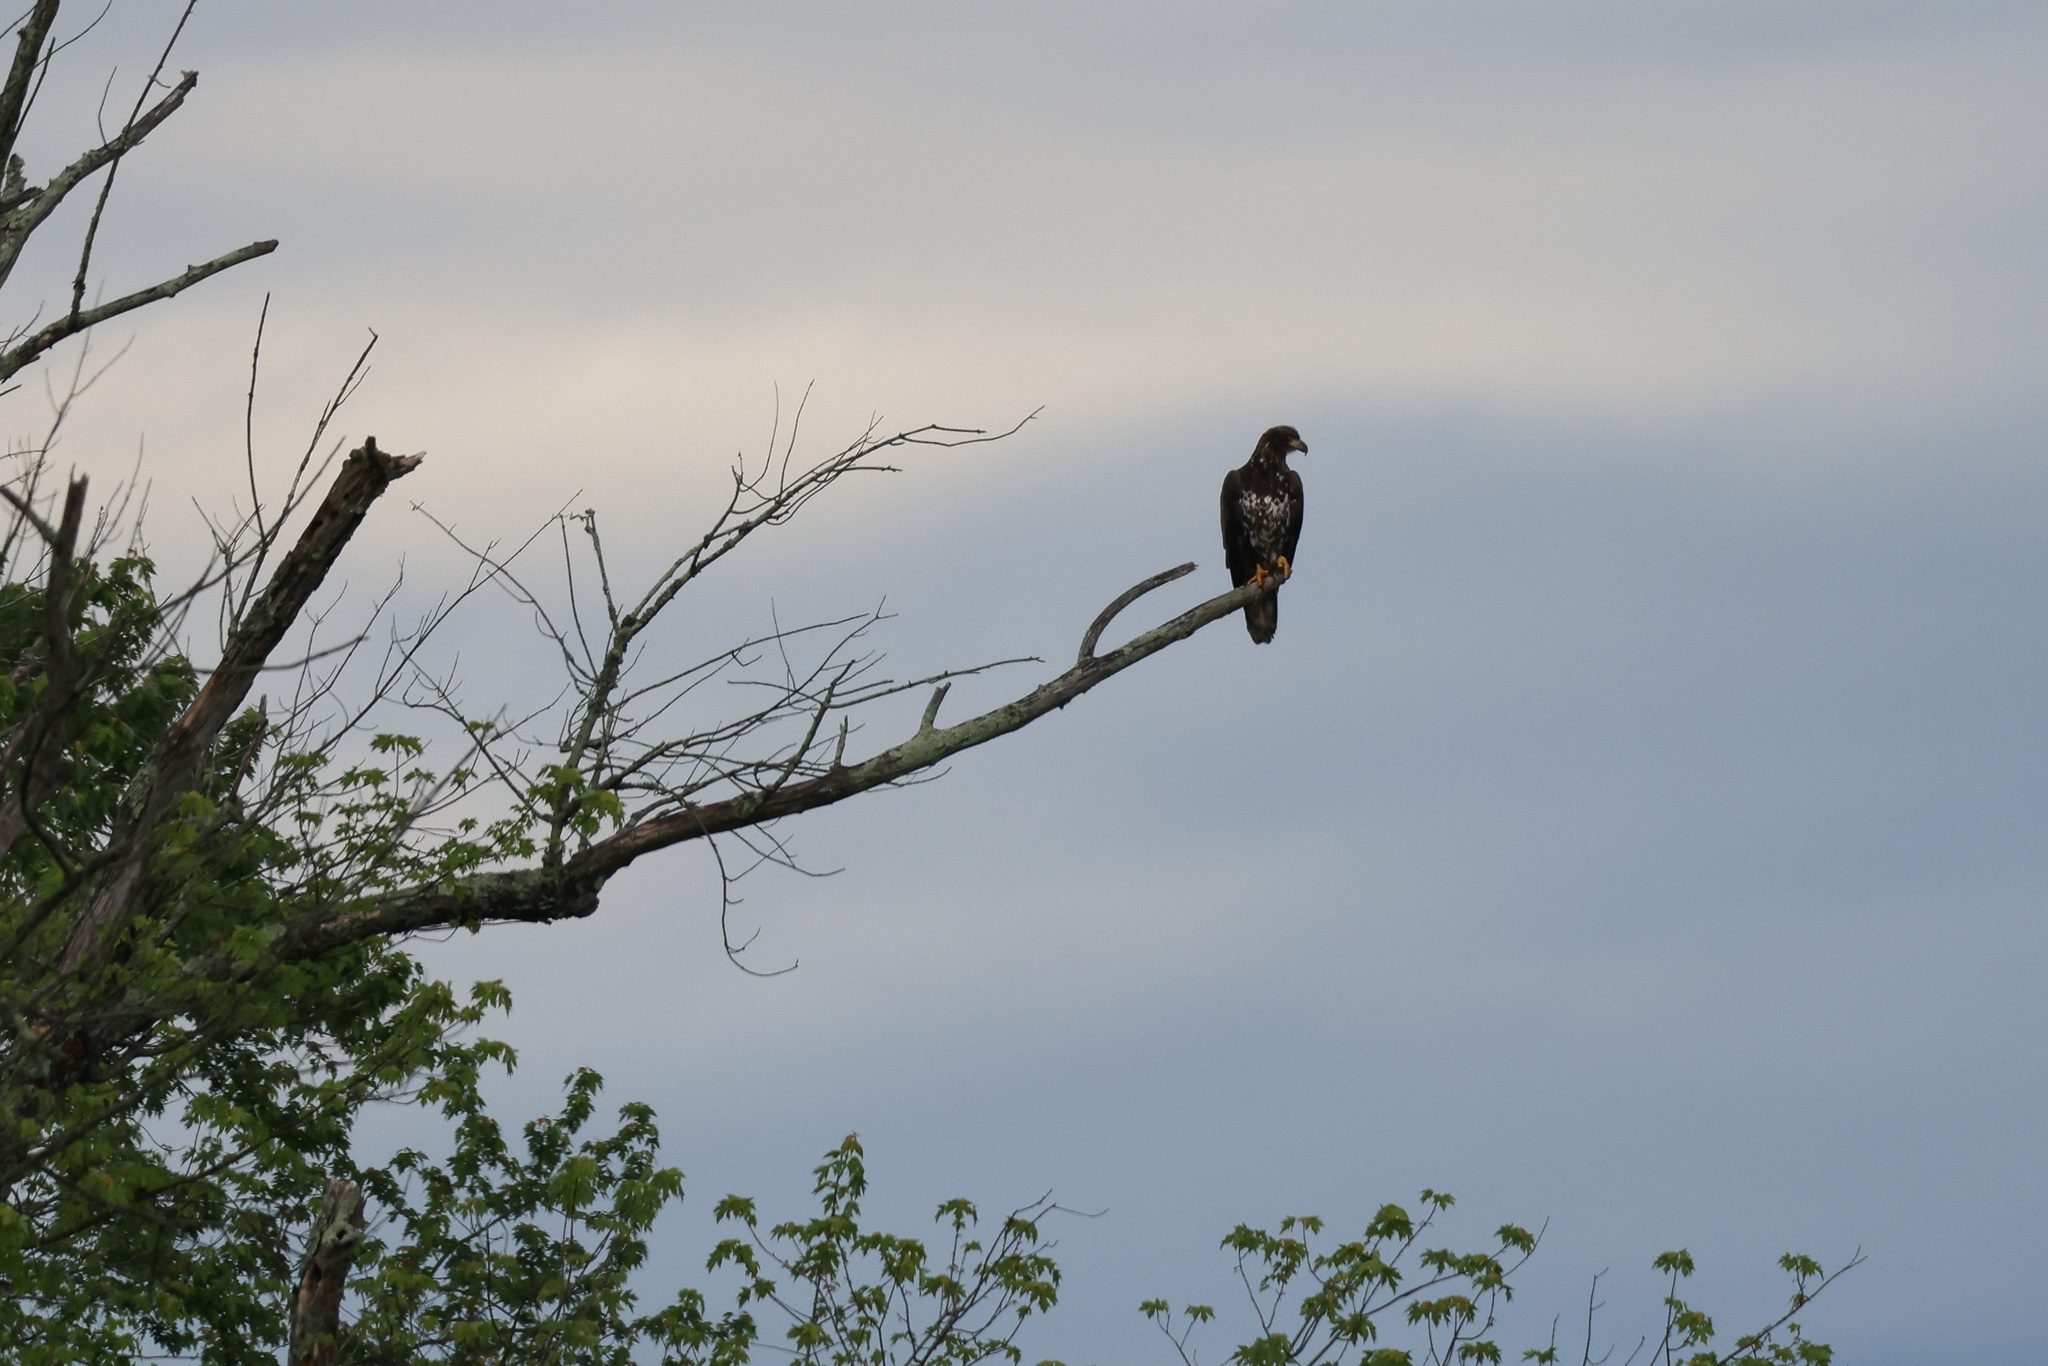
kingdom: Animalia
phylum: Chordata
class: Aves
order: Accipitriformes
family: Accipitridae
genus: Haliaeetus
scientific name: Haliaeetus leucocephalus
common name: Bald eagle
